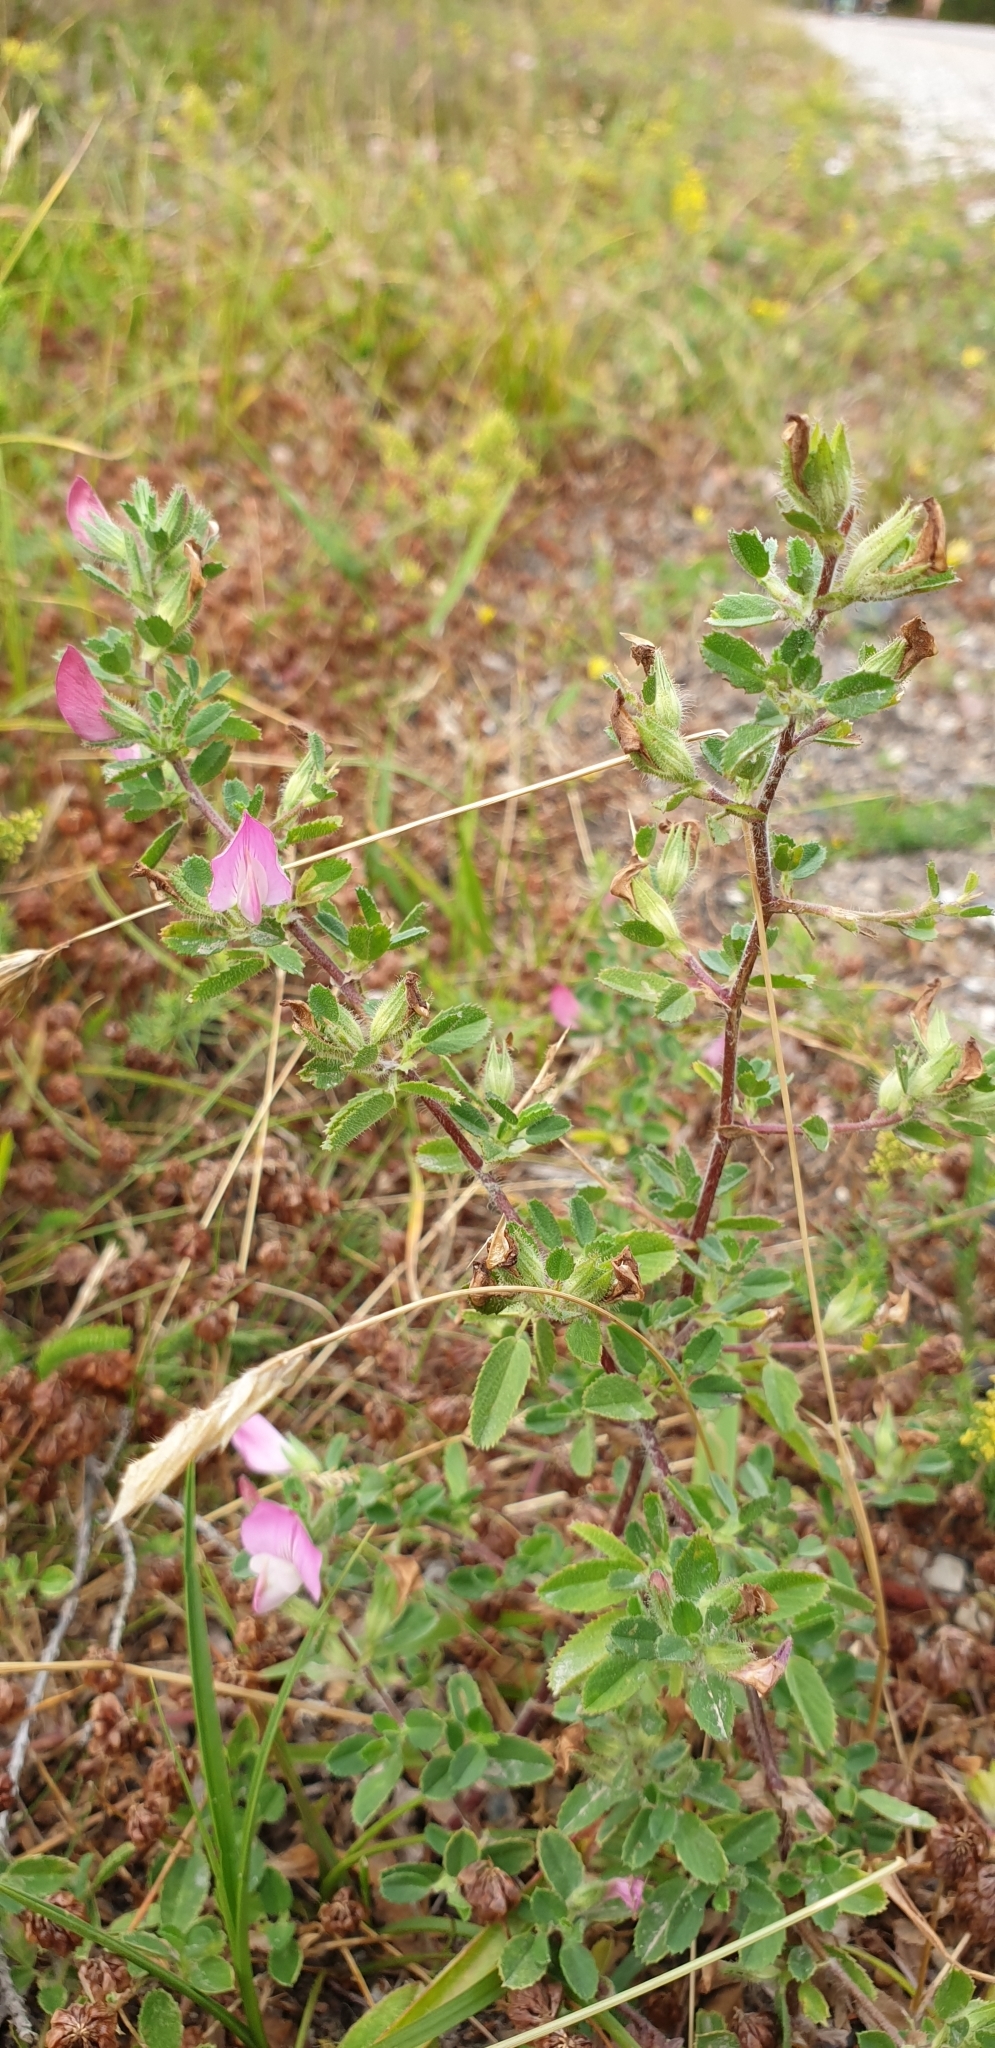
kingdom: Plantae
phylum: Tracheophyta
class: Magnoliopsida
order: Fabales
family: Fabaceae
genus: Ononis
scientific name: Ononis spinosa
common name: Spiny restharrow
